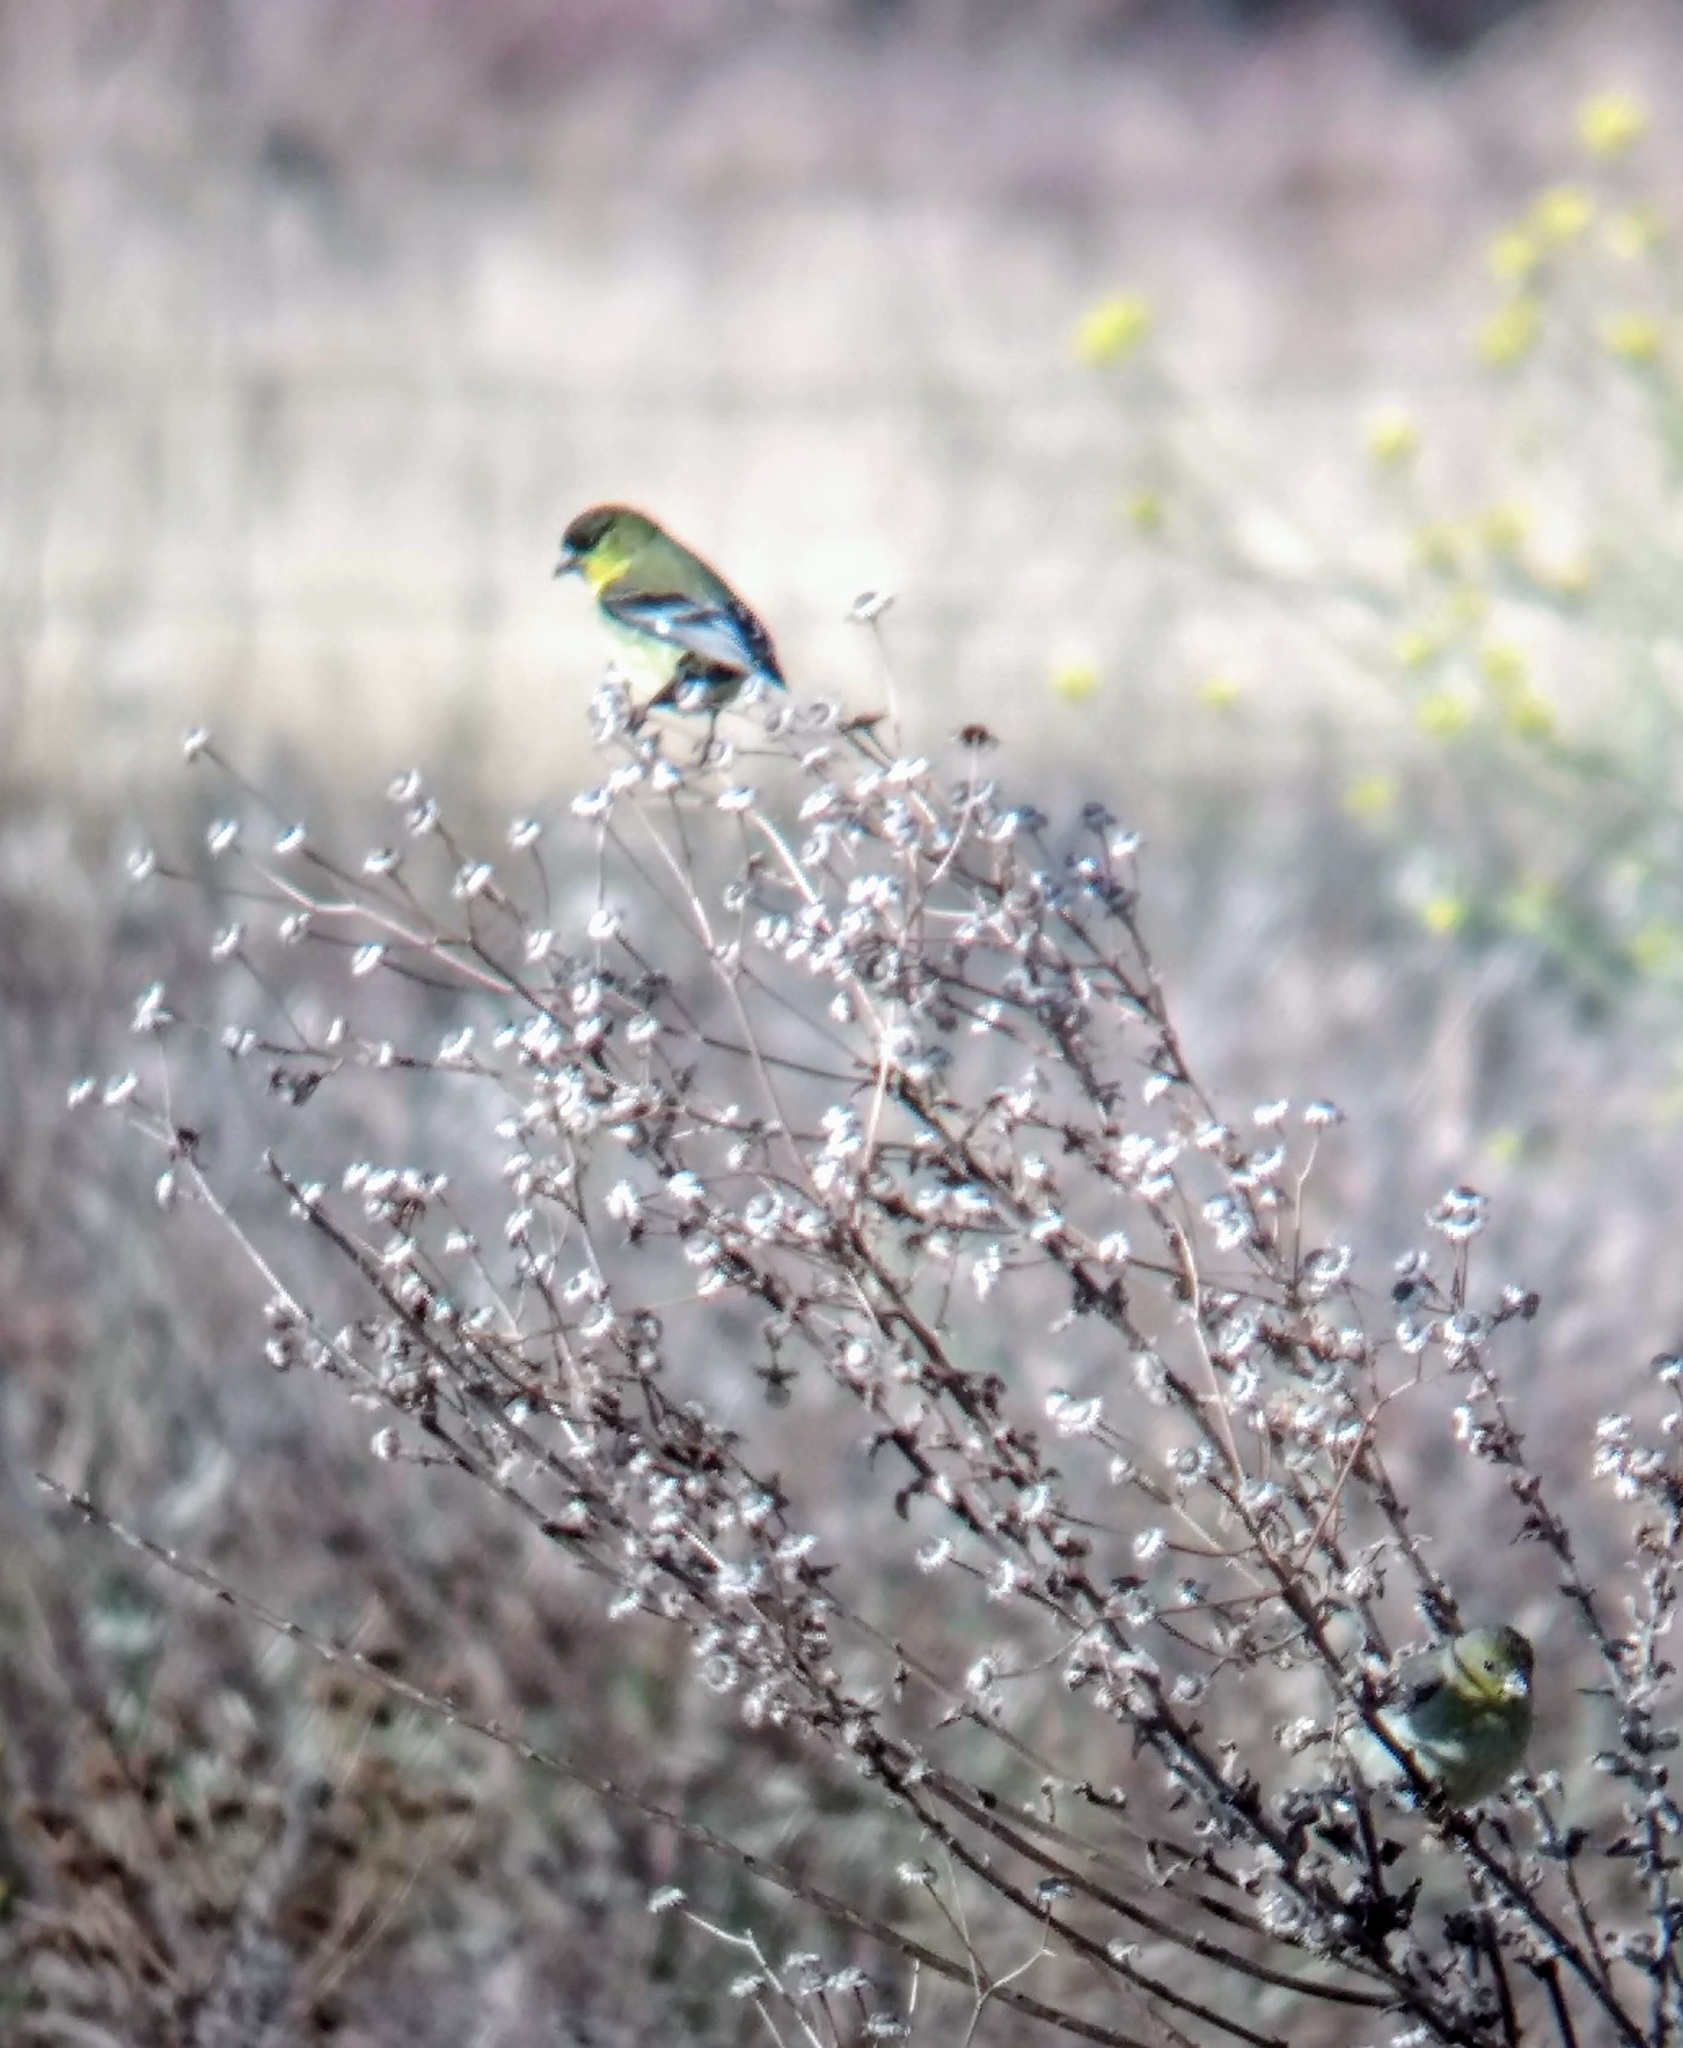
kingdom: Animalia
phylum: Chordata
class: Aves
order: Passeriformes
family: Fringillidae
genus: Spinus
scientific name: Spinus psaltria
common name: Lesser goldfinch
